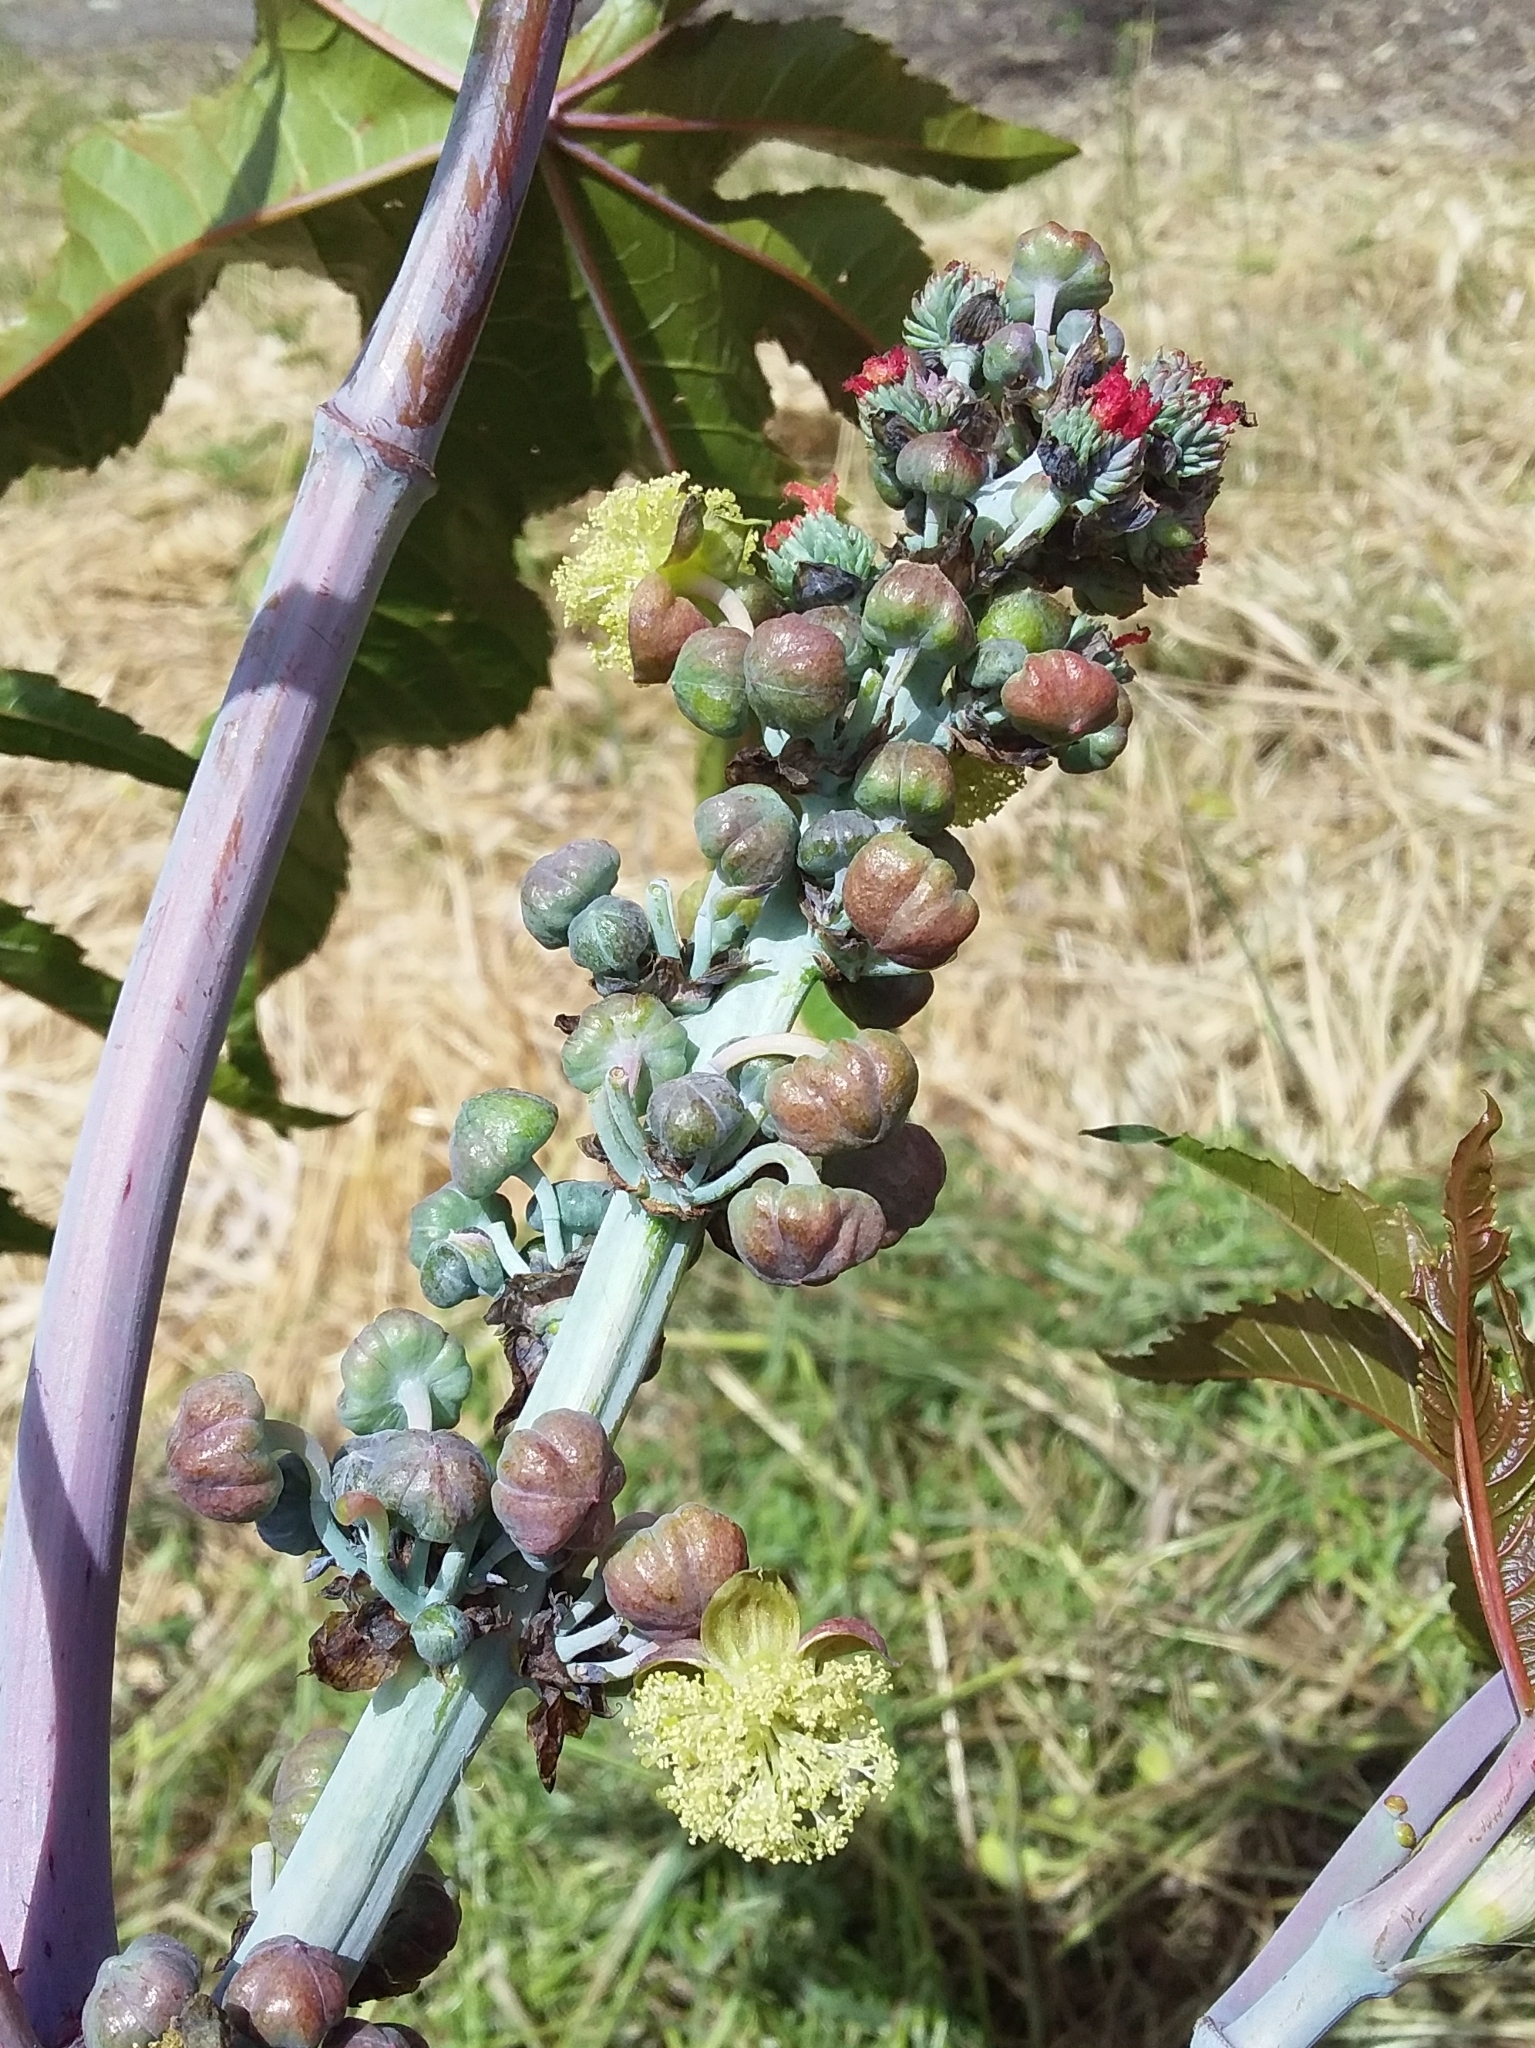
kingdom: Plantae
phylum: Tracheophyta
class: Magnoliopsida
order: Malpighiales
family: Euphorbiaceae
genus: Ricinus
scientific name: Ricinus communis
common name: Castor-oil-plant
